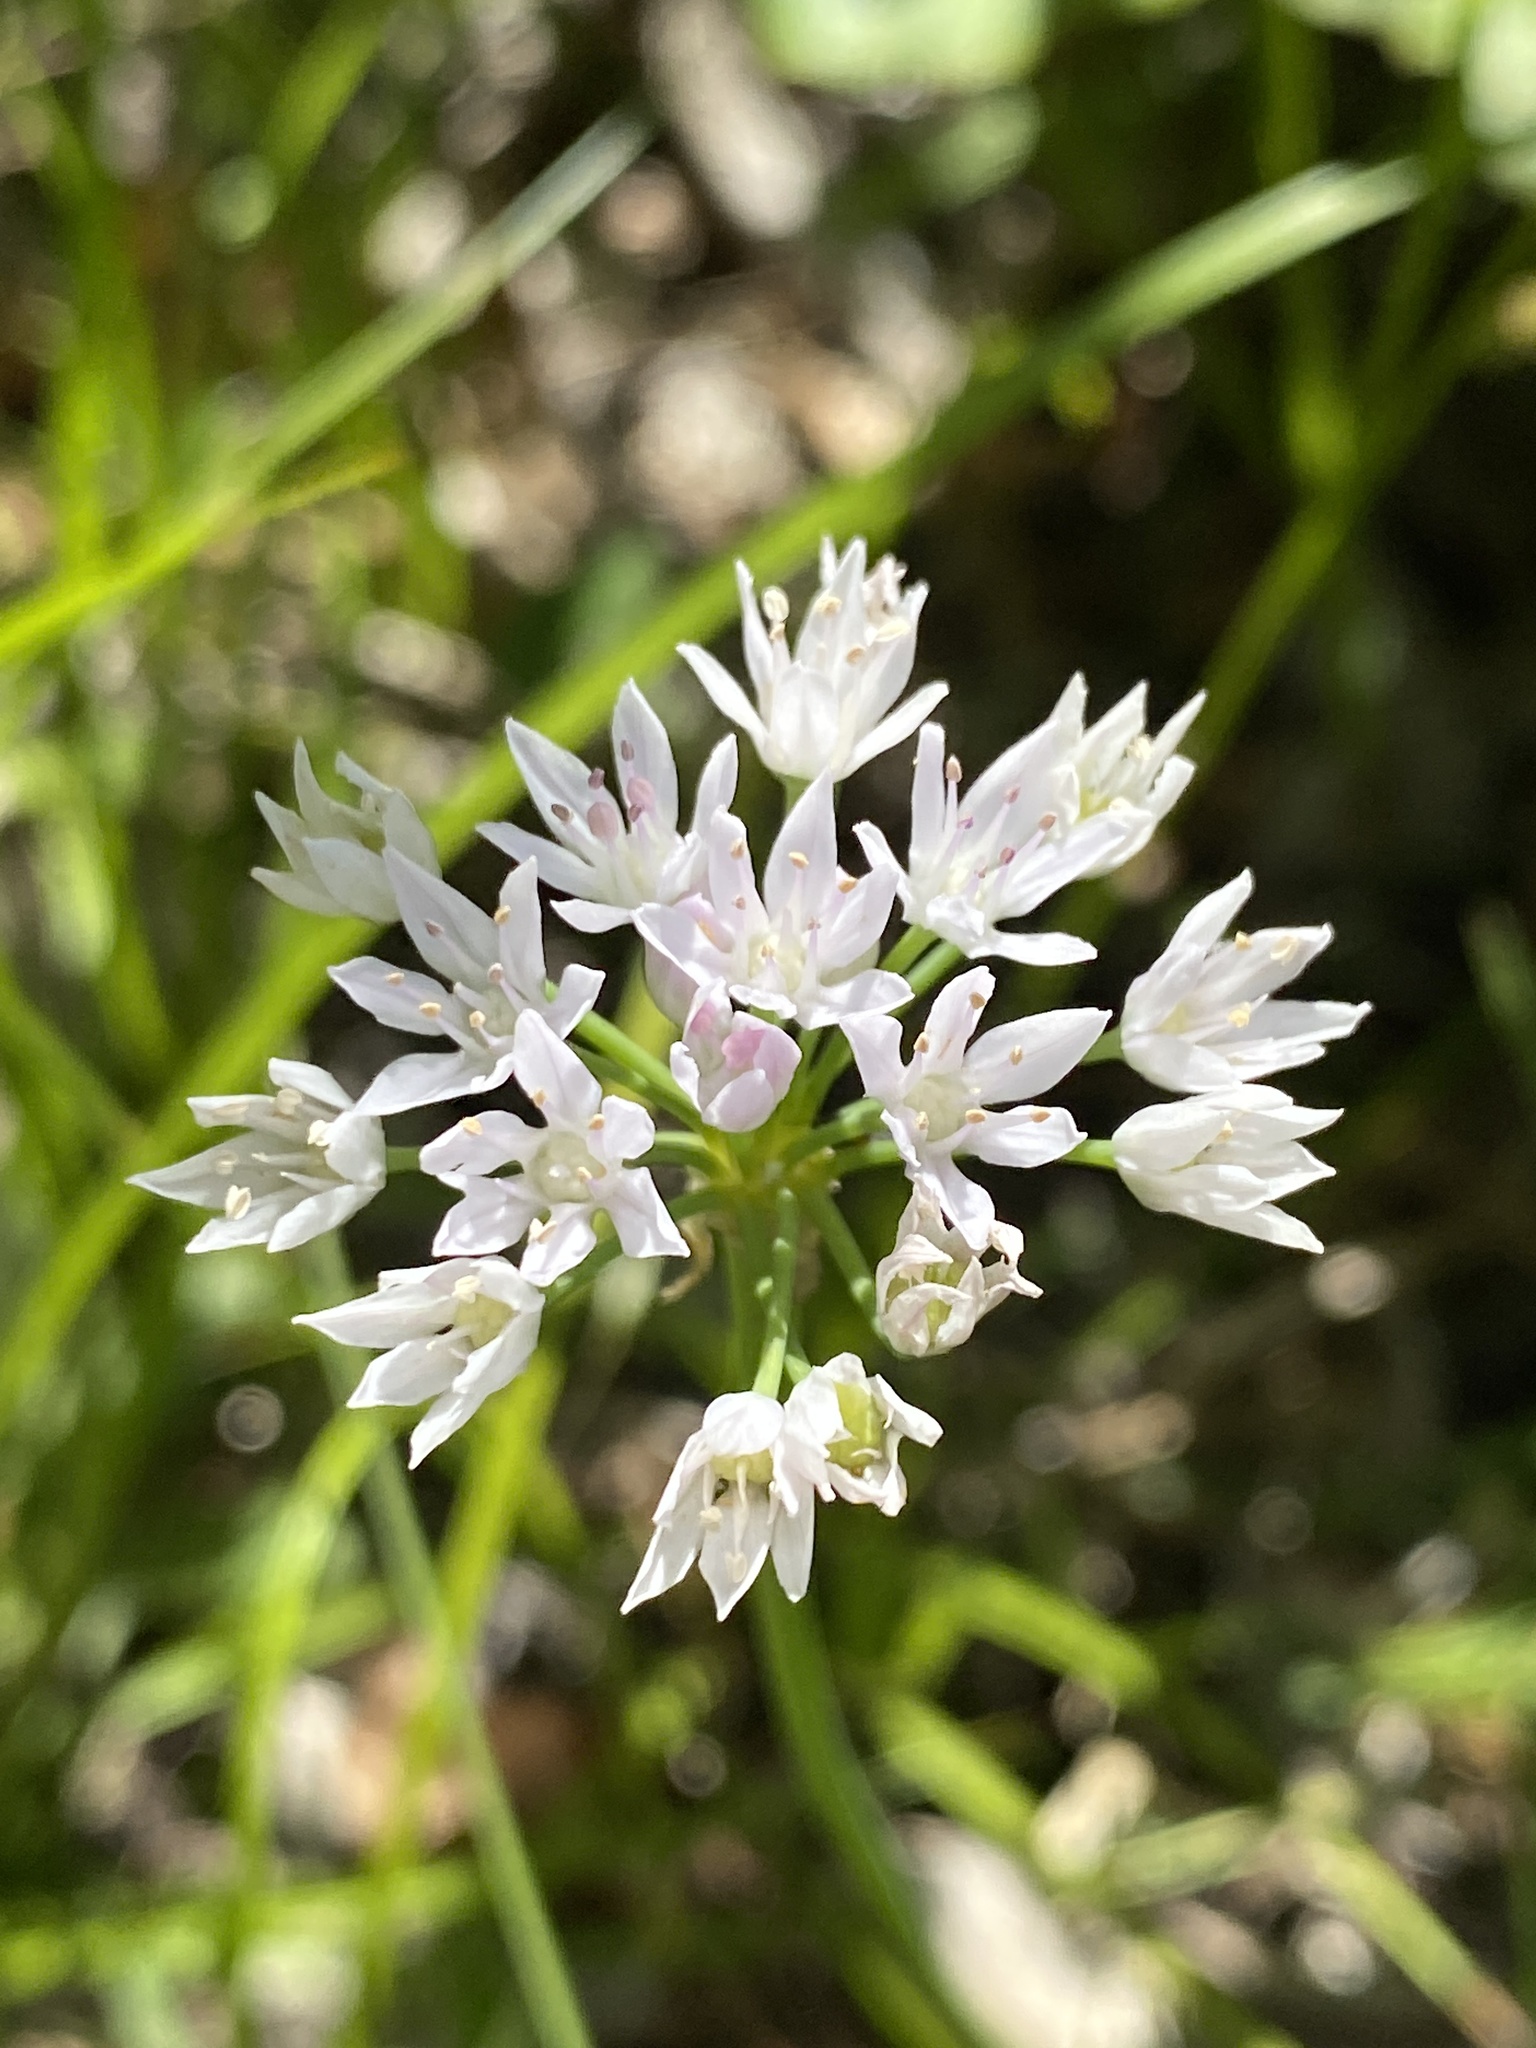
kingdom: Plantae
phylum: Tracheophyta
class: Liliopsida
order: Asparagales
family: Amaryllidaceae
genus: Allium
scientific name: Allium canadense
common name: Meadow garlic
